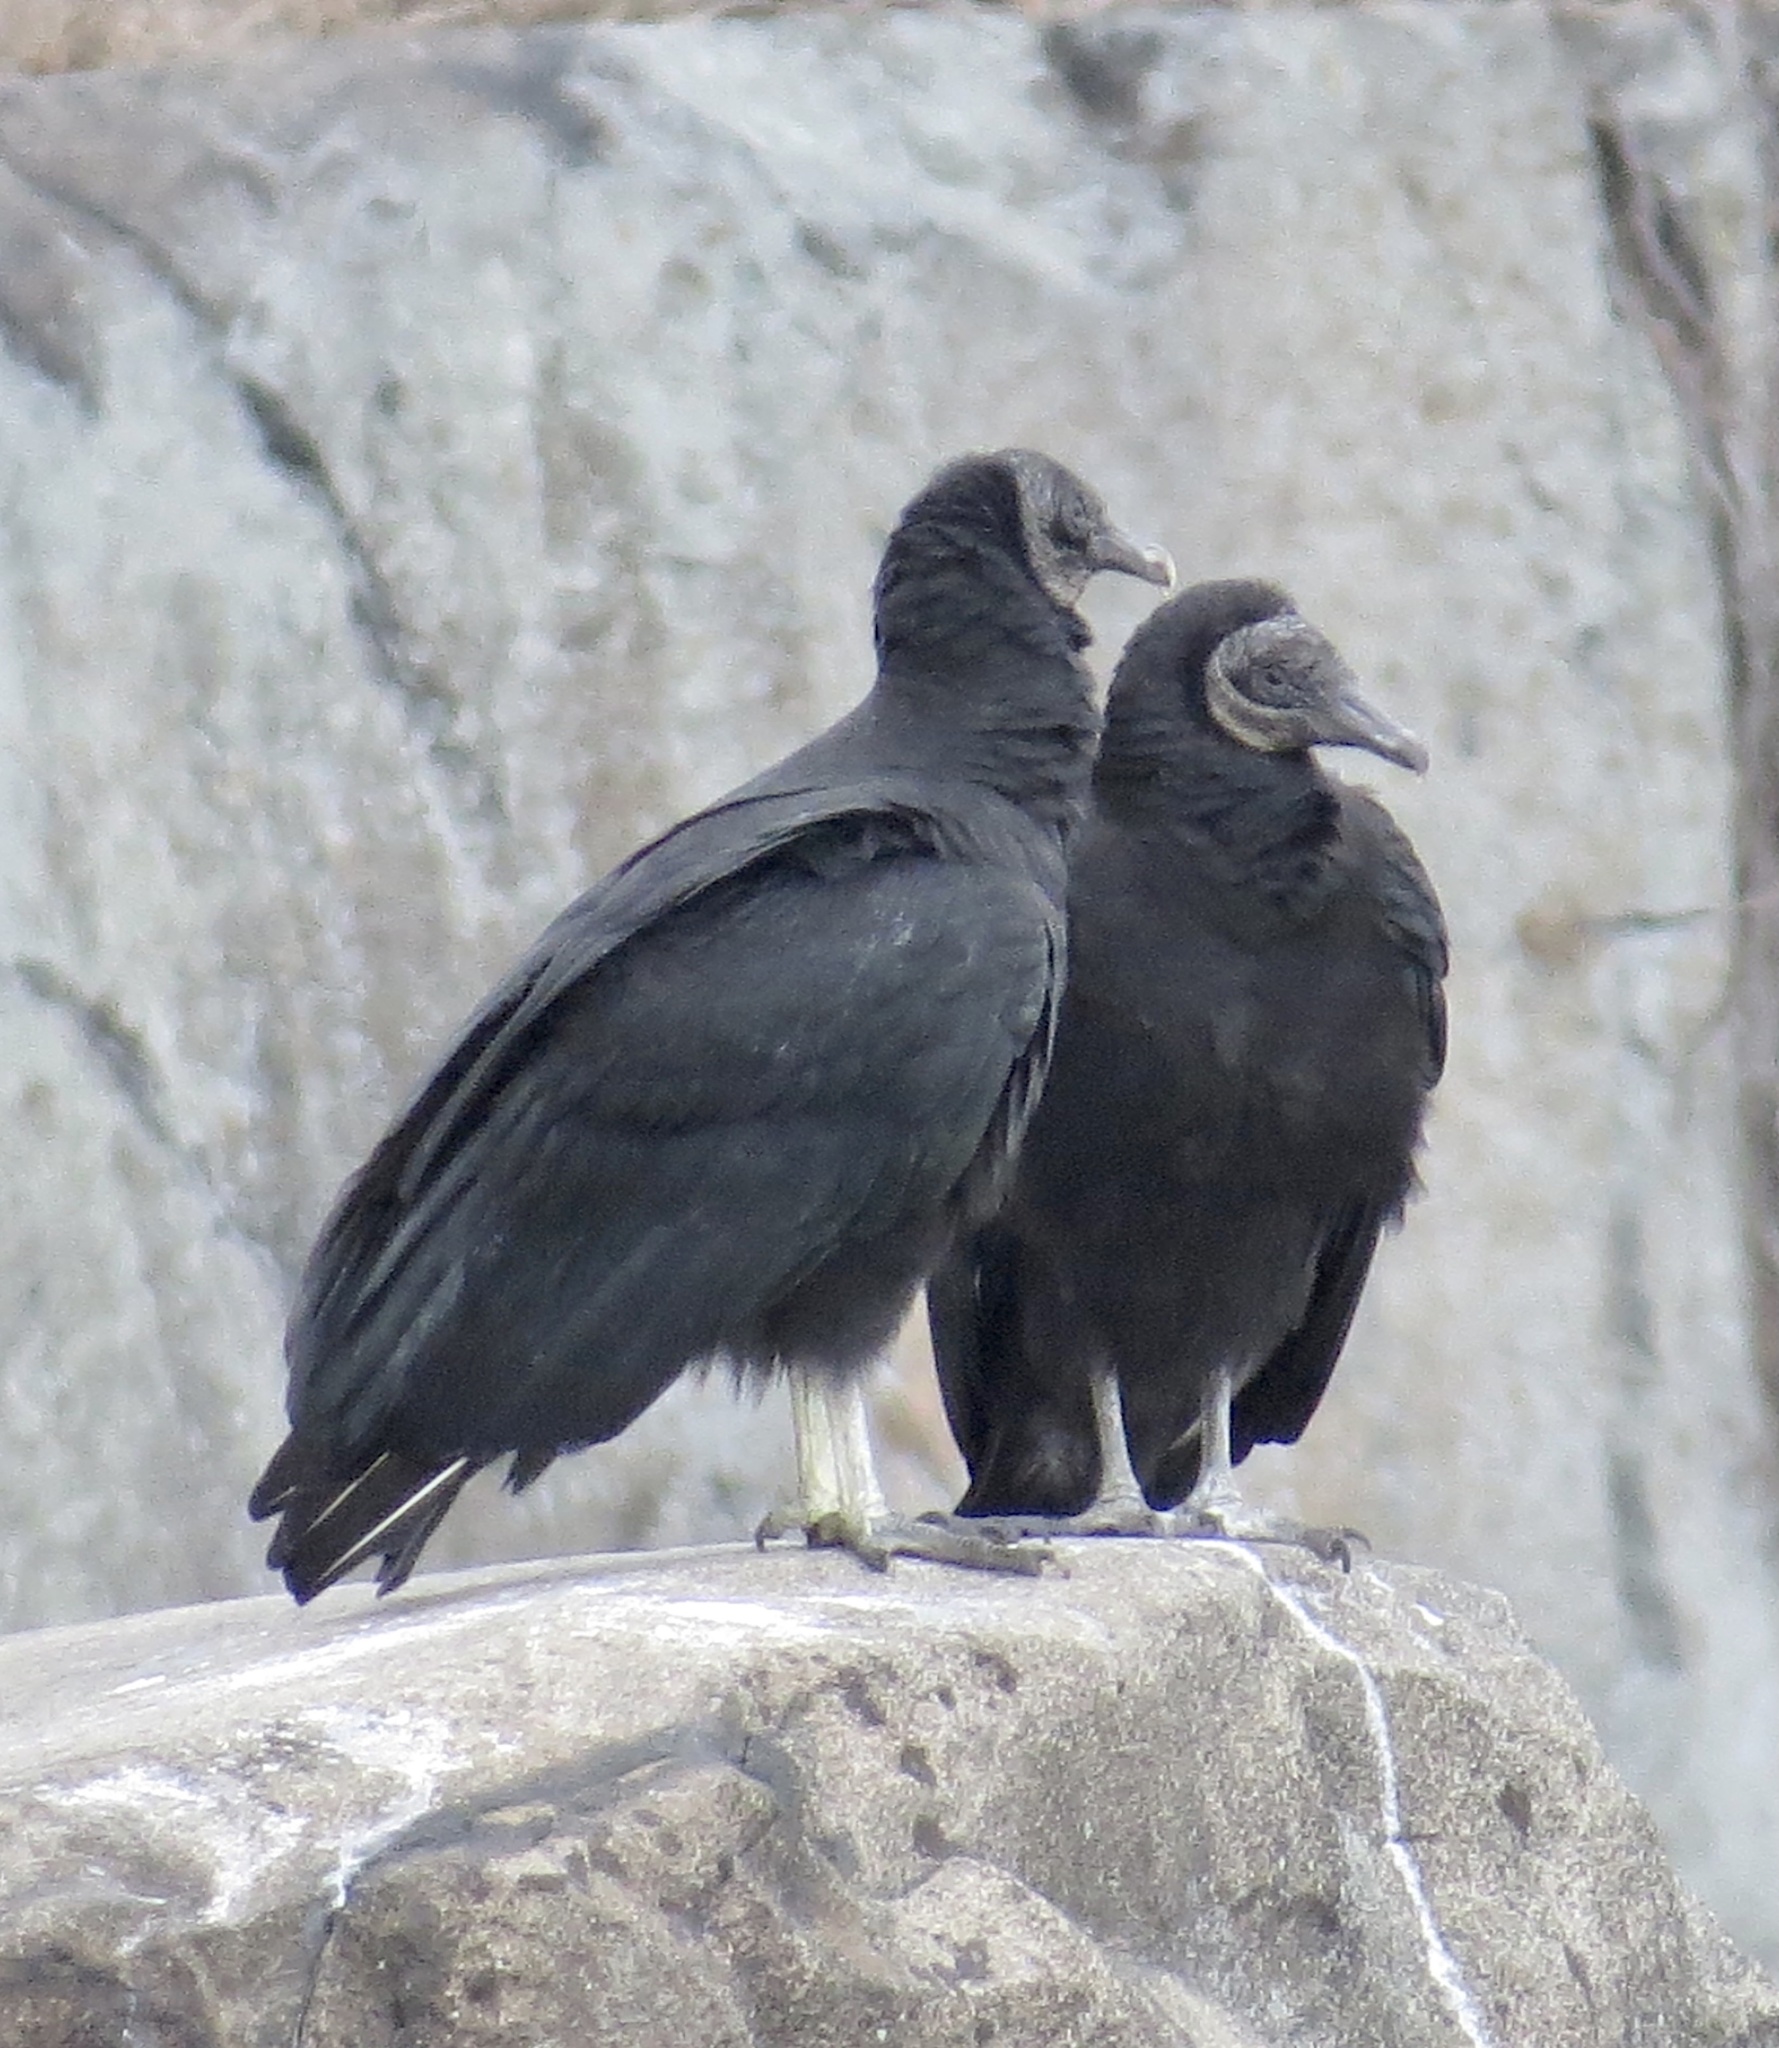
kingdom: Animalia
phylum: Chordata
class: Aves
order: Accipitriformes
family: Cathartidae
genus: Coragyps
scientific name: Coragyps atratus
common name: Black vulture
